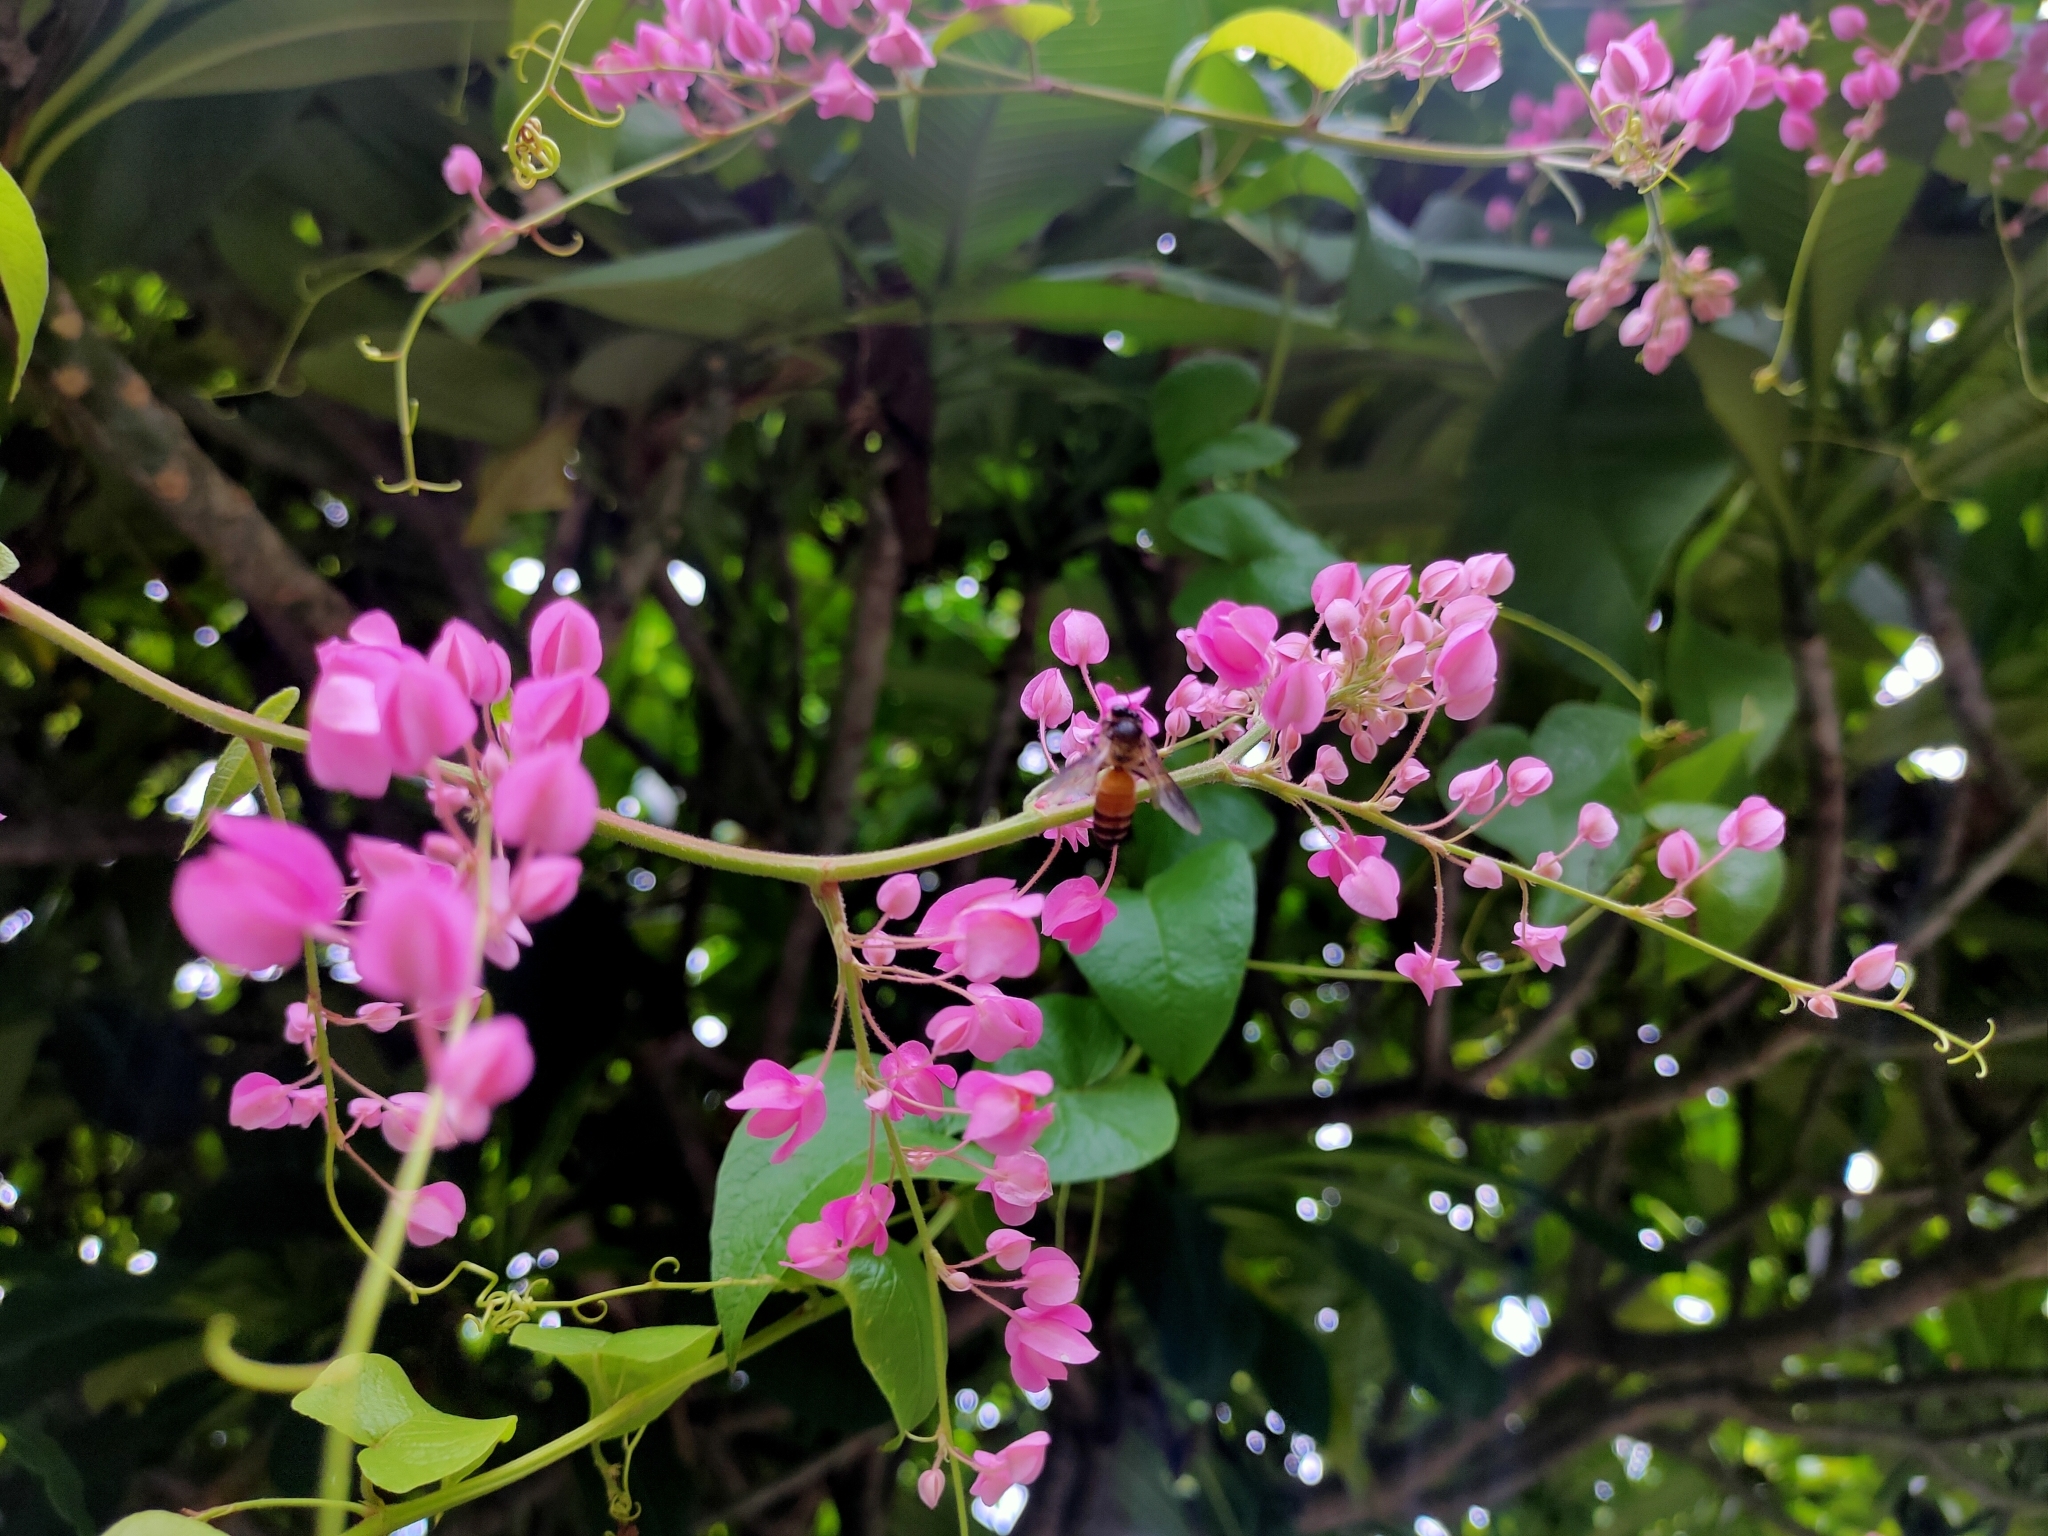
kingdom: Plantae
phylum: Tracheophyta
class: Magnoliopsida
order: Caryophyllales
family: Polygonaceae
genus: Antigonon
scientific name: Antigonon leptopus
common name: Coral vine
